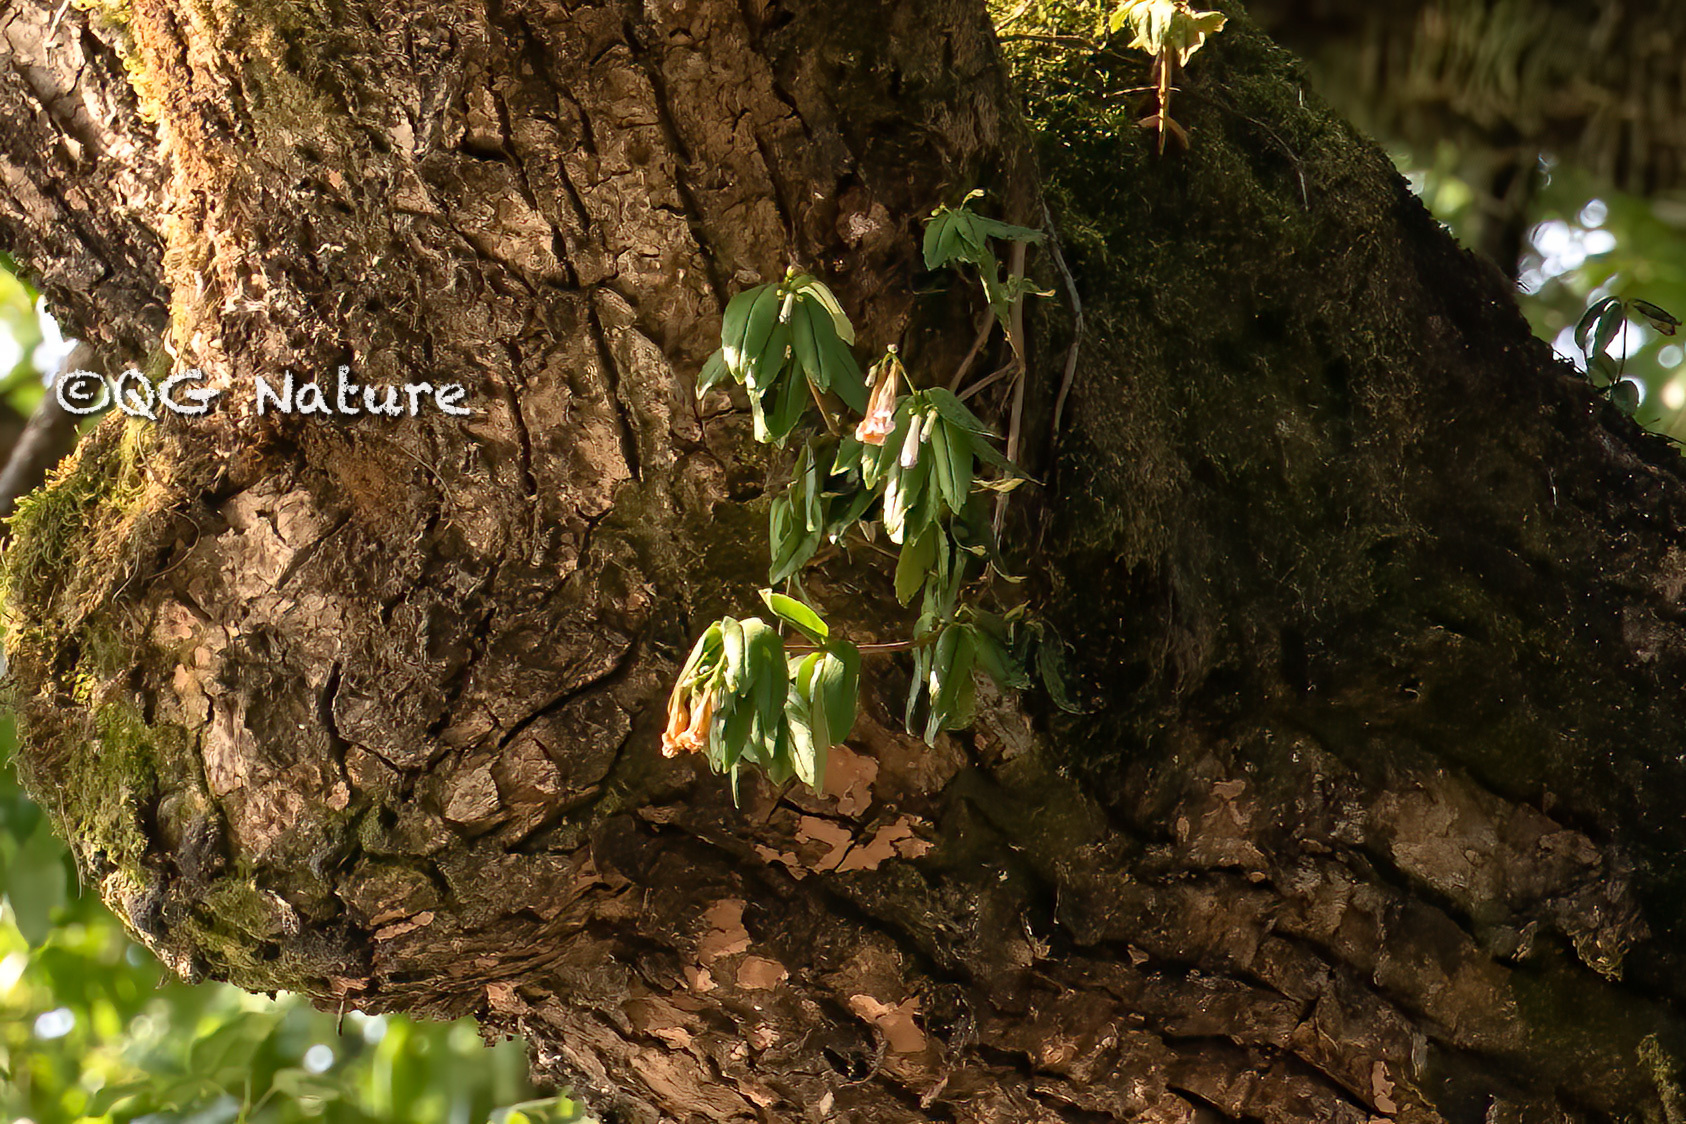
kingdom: Plantae
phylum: Tracheophyta
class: Magnoliopsida
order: Lamiales
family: Gesneriaceae
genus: Lysionotus
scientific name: Lysionotus pauciflorus
